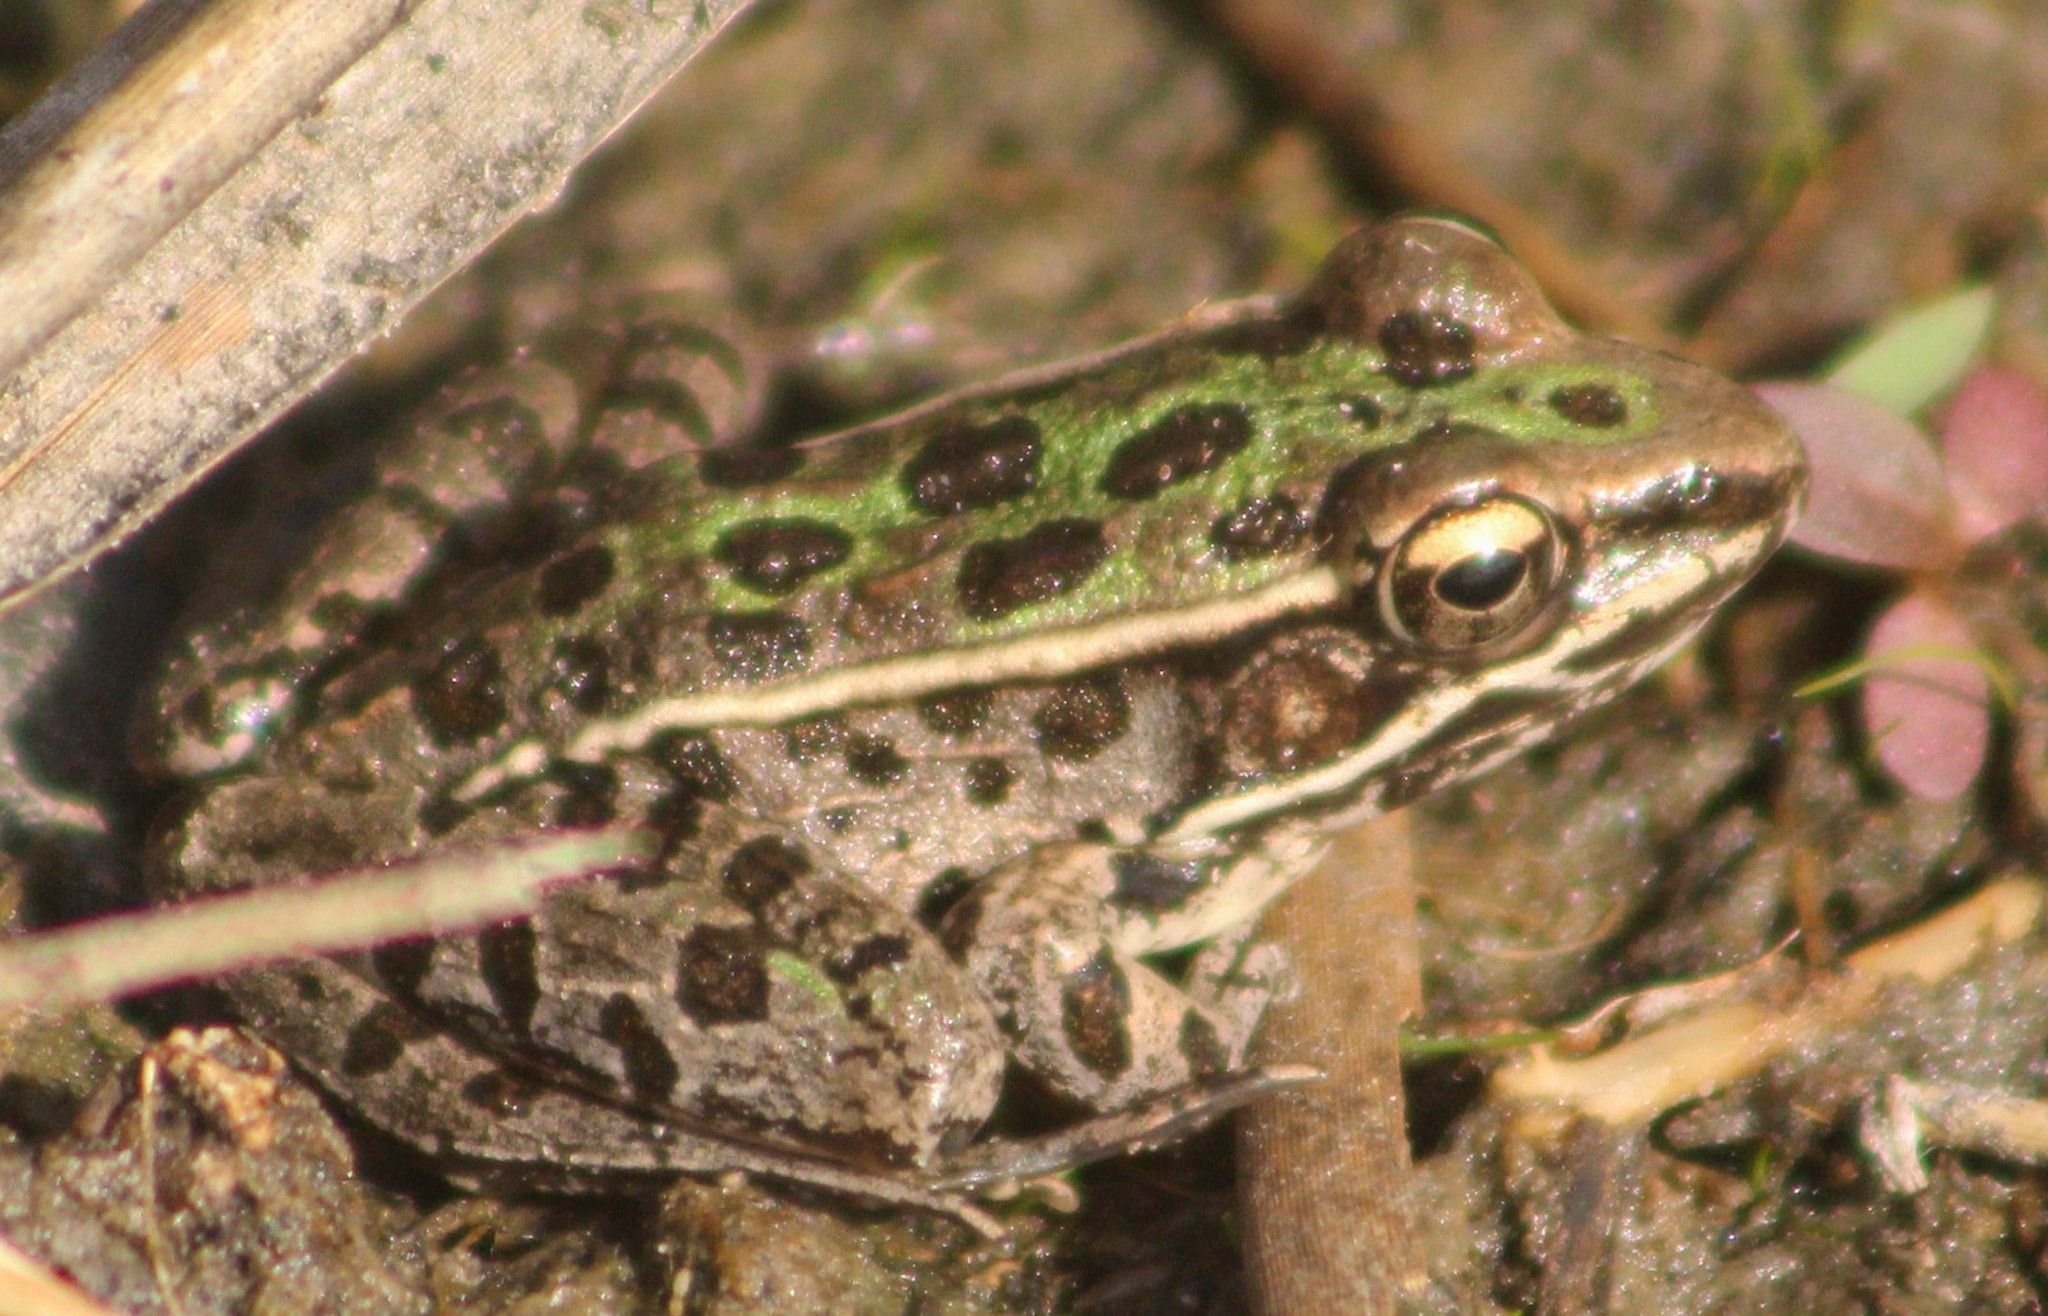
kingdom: Animalia
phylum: Chordata
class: Amphibia
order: Anura
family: Ranidae
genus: Lithobates
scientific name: Lithobates sphenocephalus
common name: Southern leopard frog
